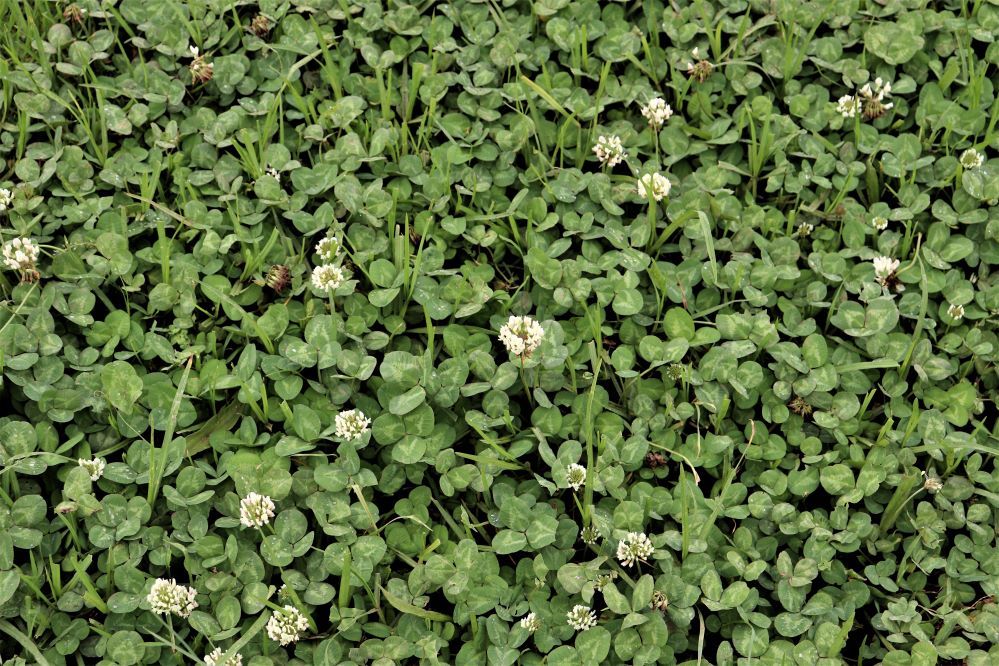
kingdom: Plantae
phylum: Tracheophyta
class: Magnoliopsida
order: Fabales
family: Fabaceae
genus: Trifolium
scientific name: Trifolium repens
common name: White clover
